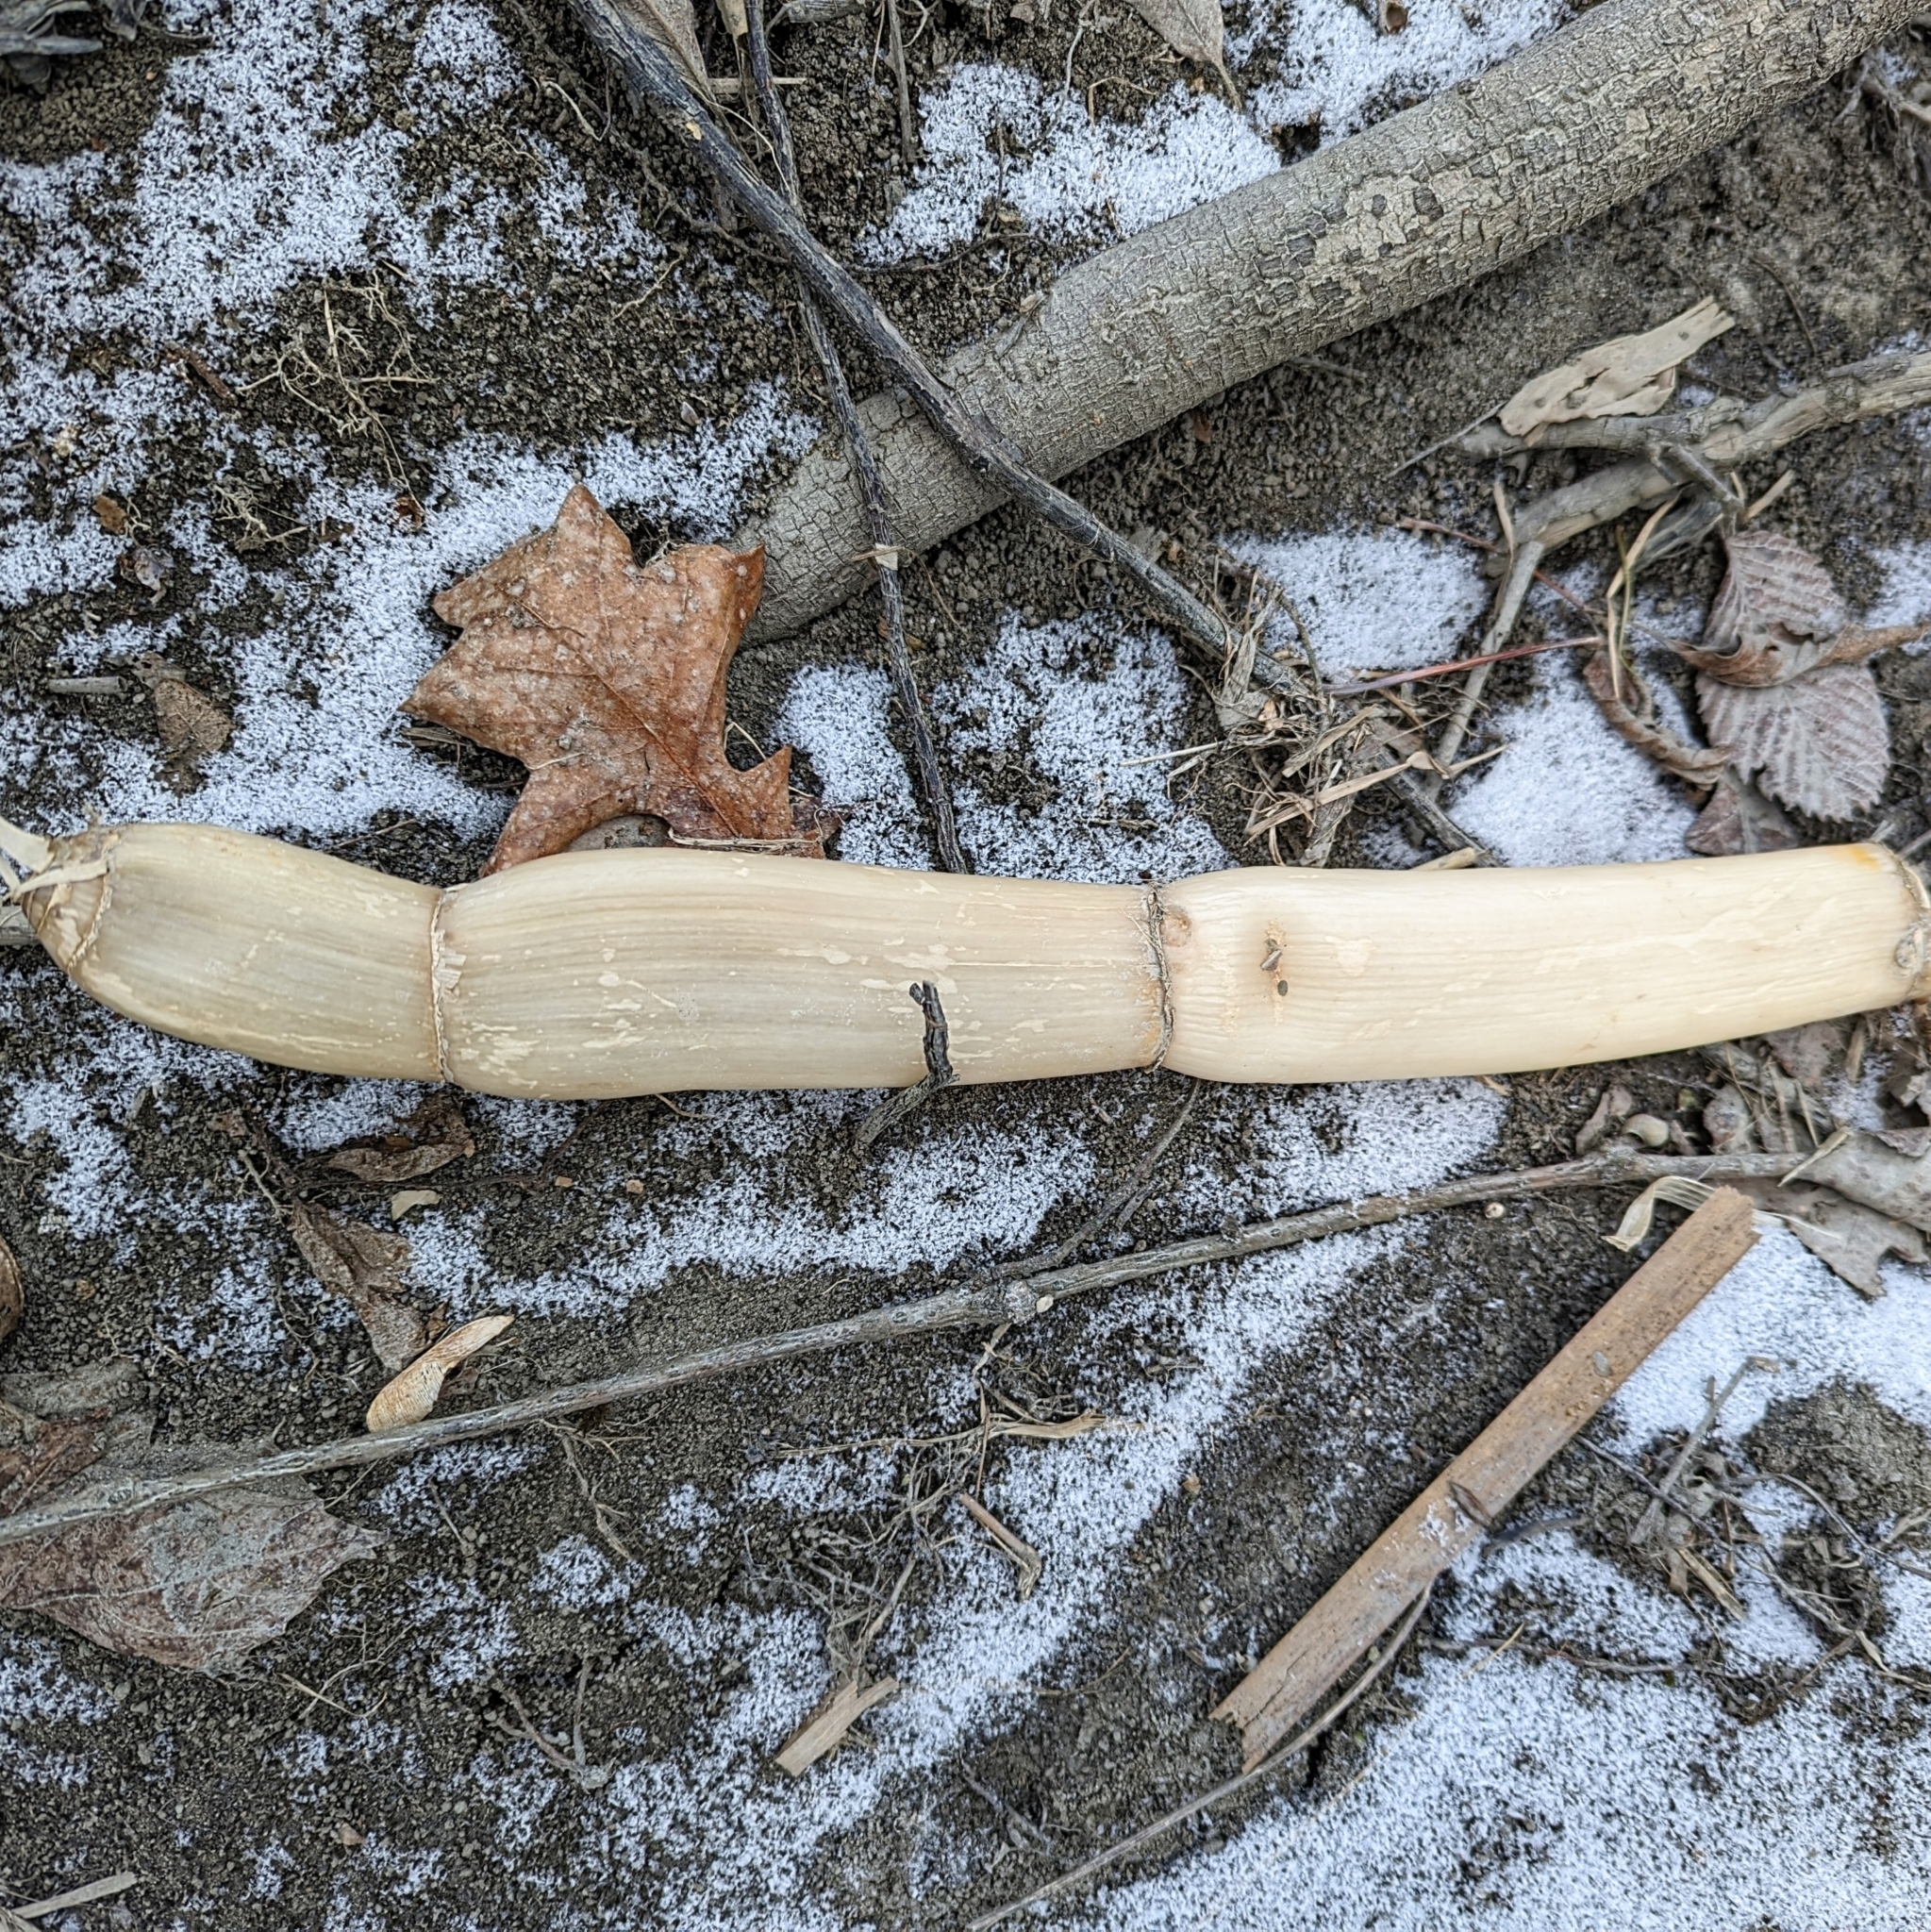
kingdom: Plantae
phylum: Tracheophyta
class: Liliopsida
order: Poales
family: Poaceae
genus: Phragmites
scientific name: Phragmites australis
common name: Common reed
